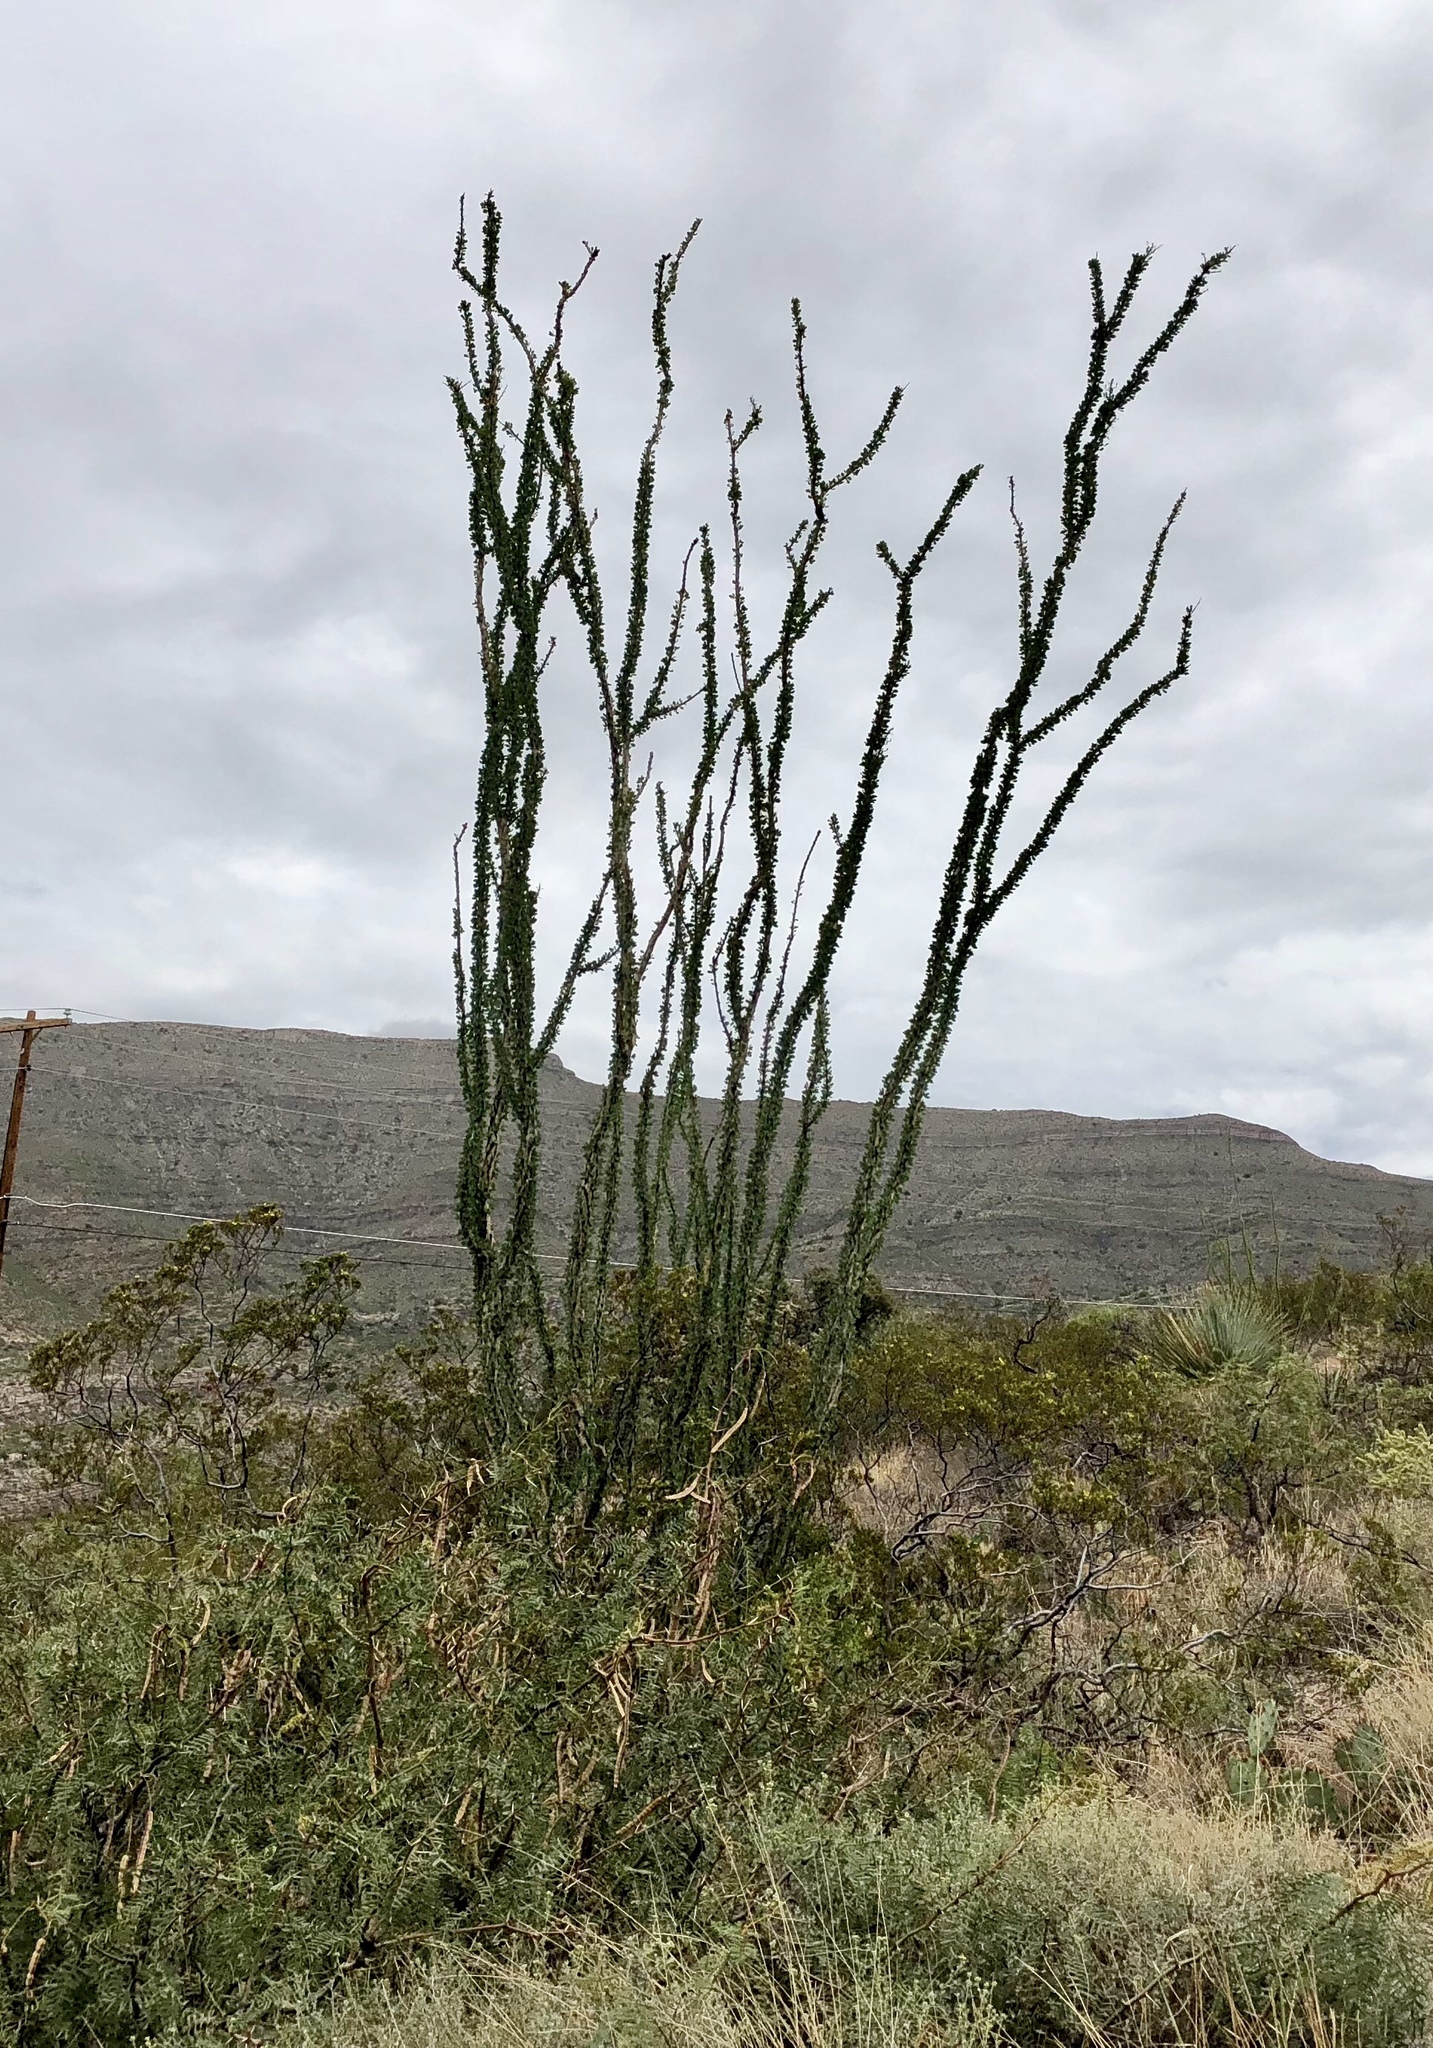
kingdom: Plantae
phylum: Tracheophyta
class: Magnoliopsida
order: Ericales
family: Fouquieriaceae
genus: Fouquieria
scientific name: Fouquieria splendens
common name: Vine-cactus
